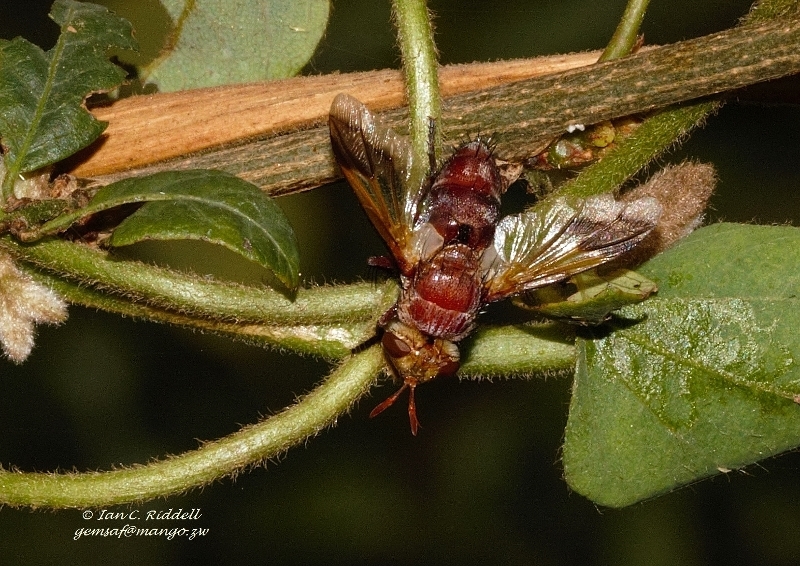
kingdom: Animalia
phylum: Arthropoda
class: Insecta
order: Diptera
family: Tachinidae
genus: Chromatophania
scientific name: Chromatophania picta
